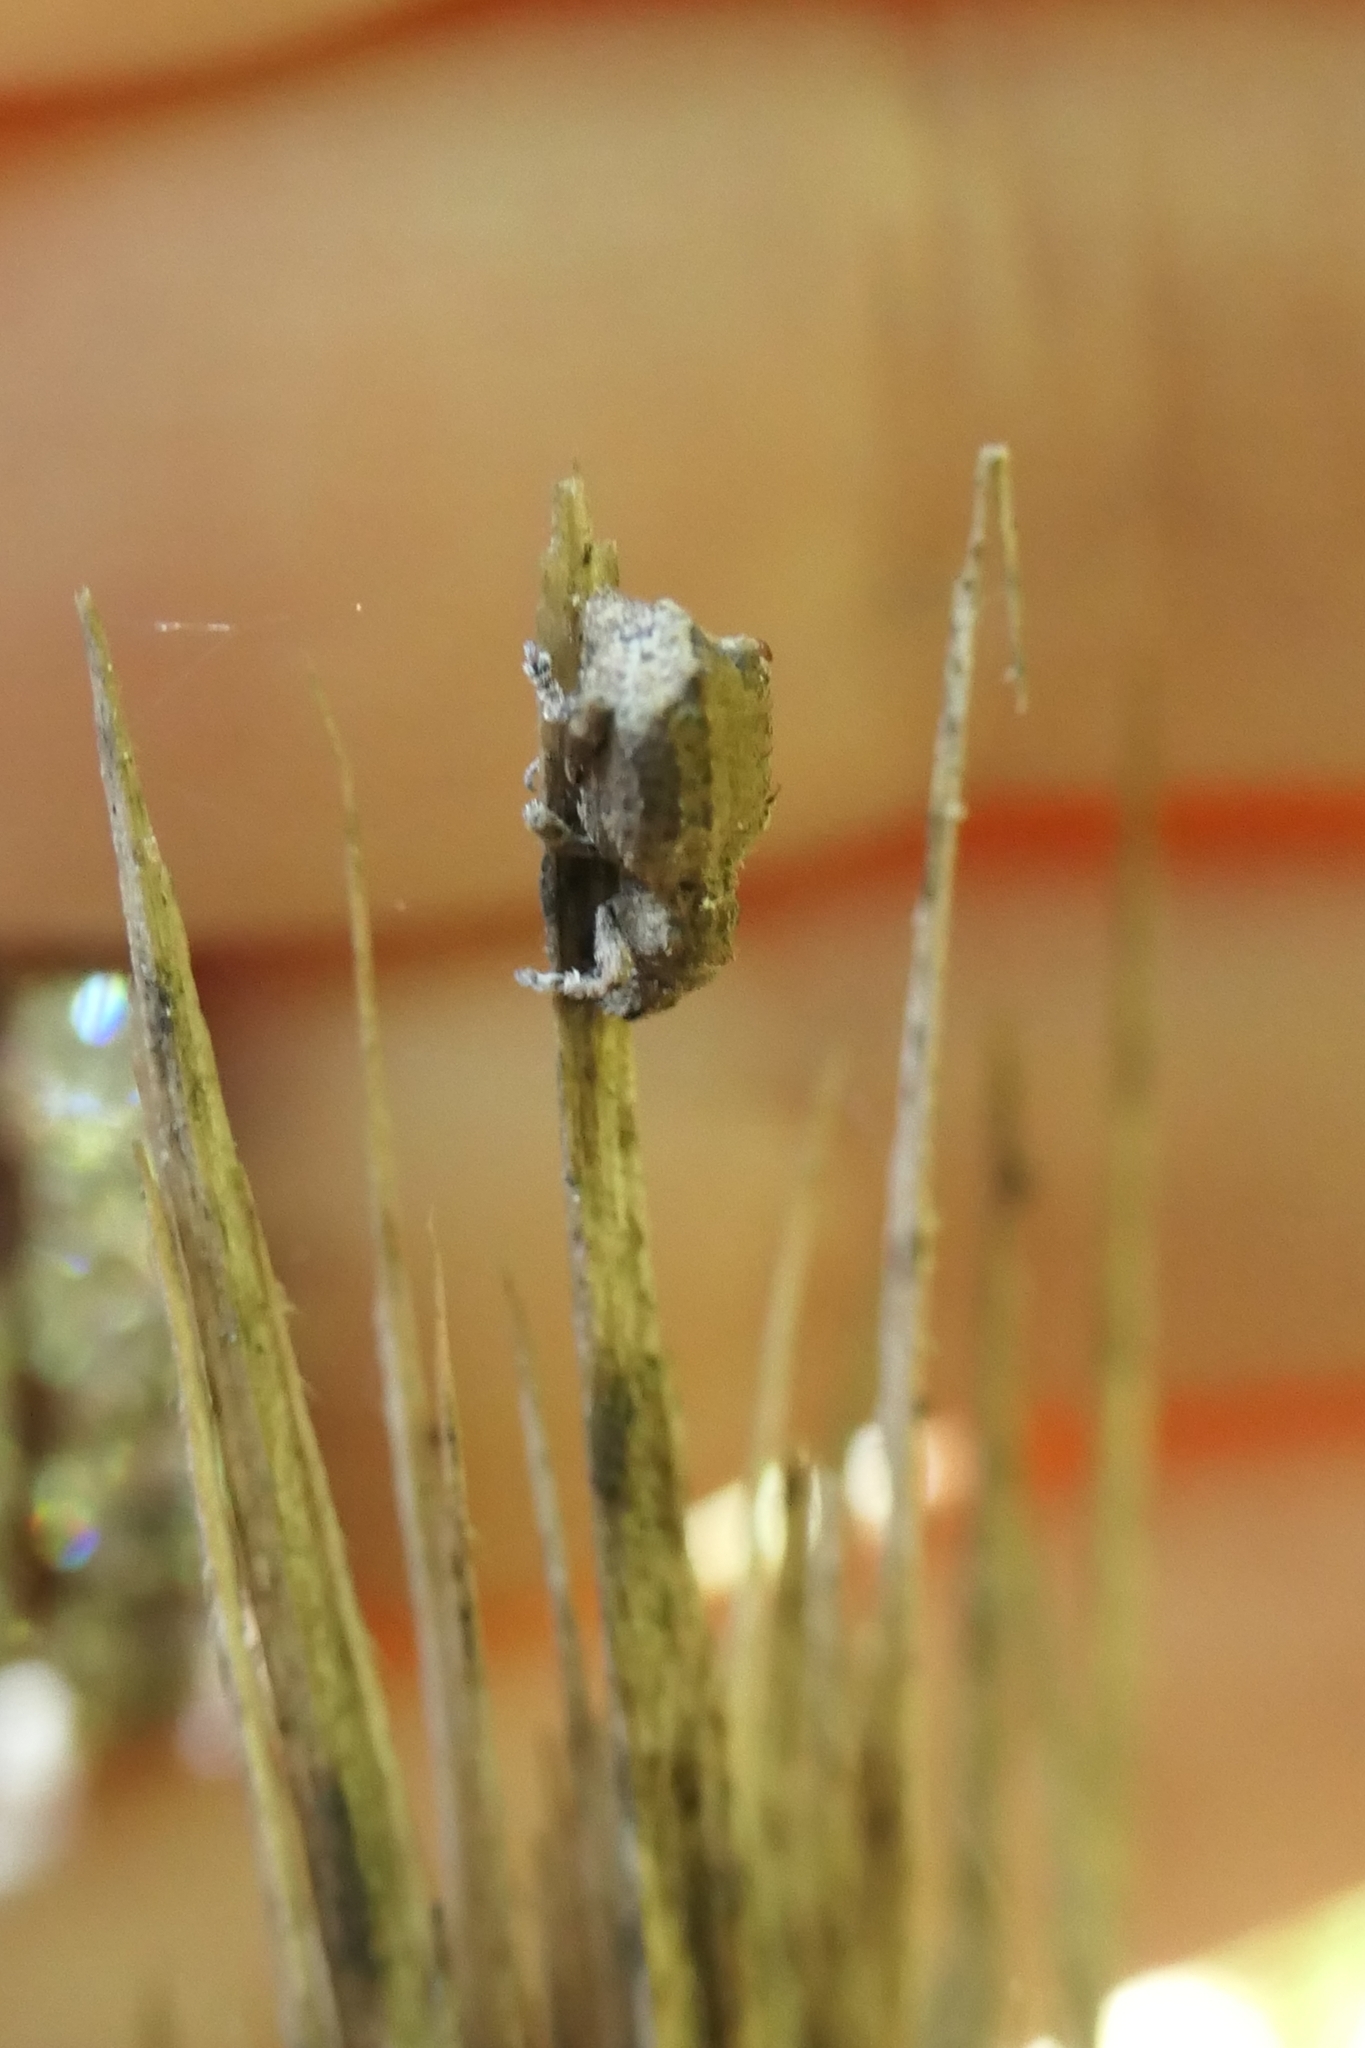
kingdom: Animalia
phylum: Arthropoda
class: Insecta
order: Coleoptera
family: Curculionidae
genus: Chalepistes
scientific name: Chalepistes asperatus
